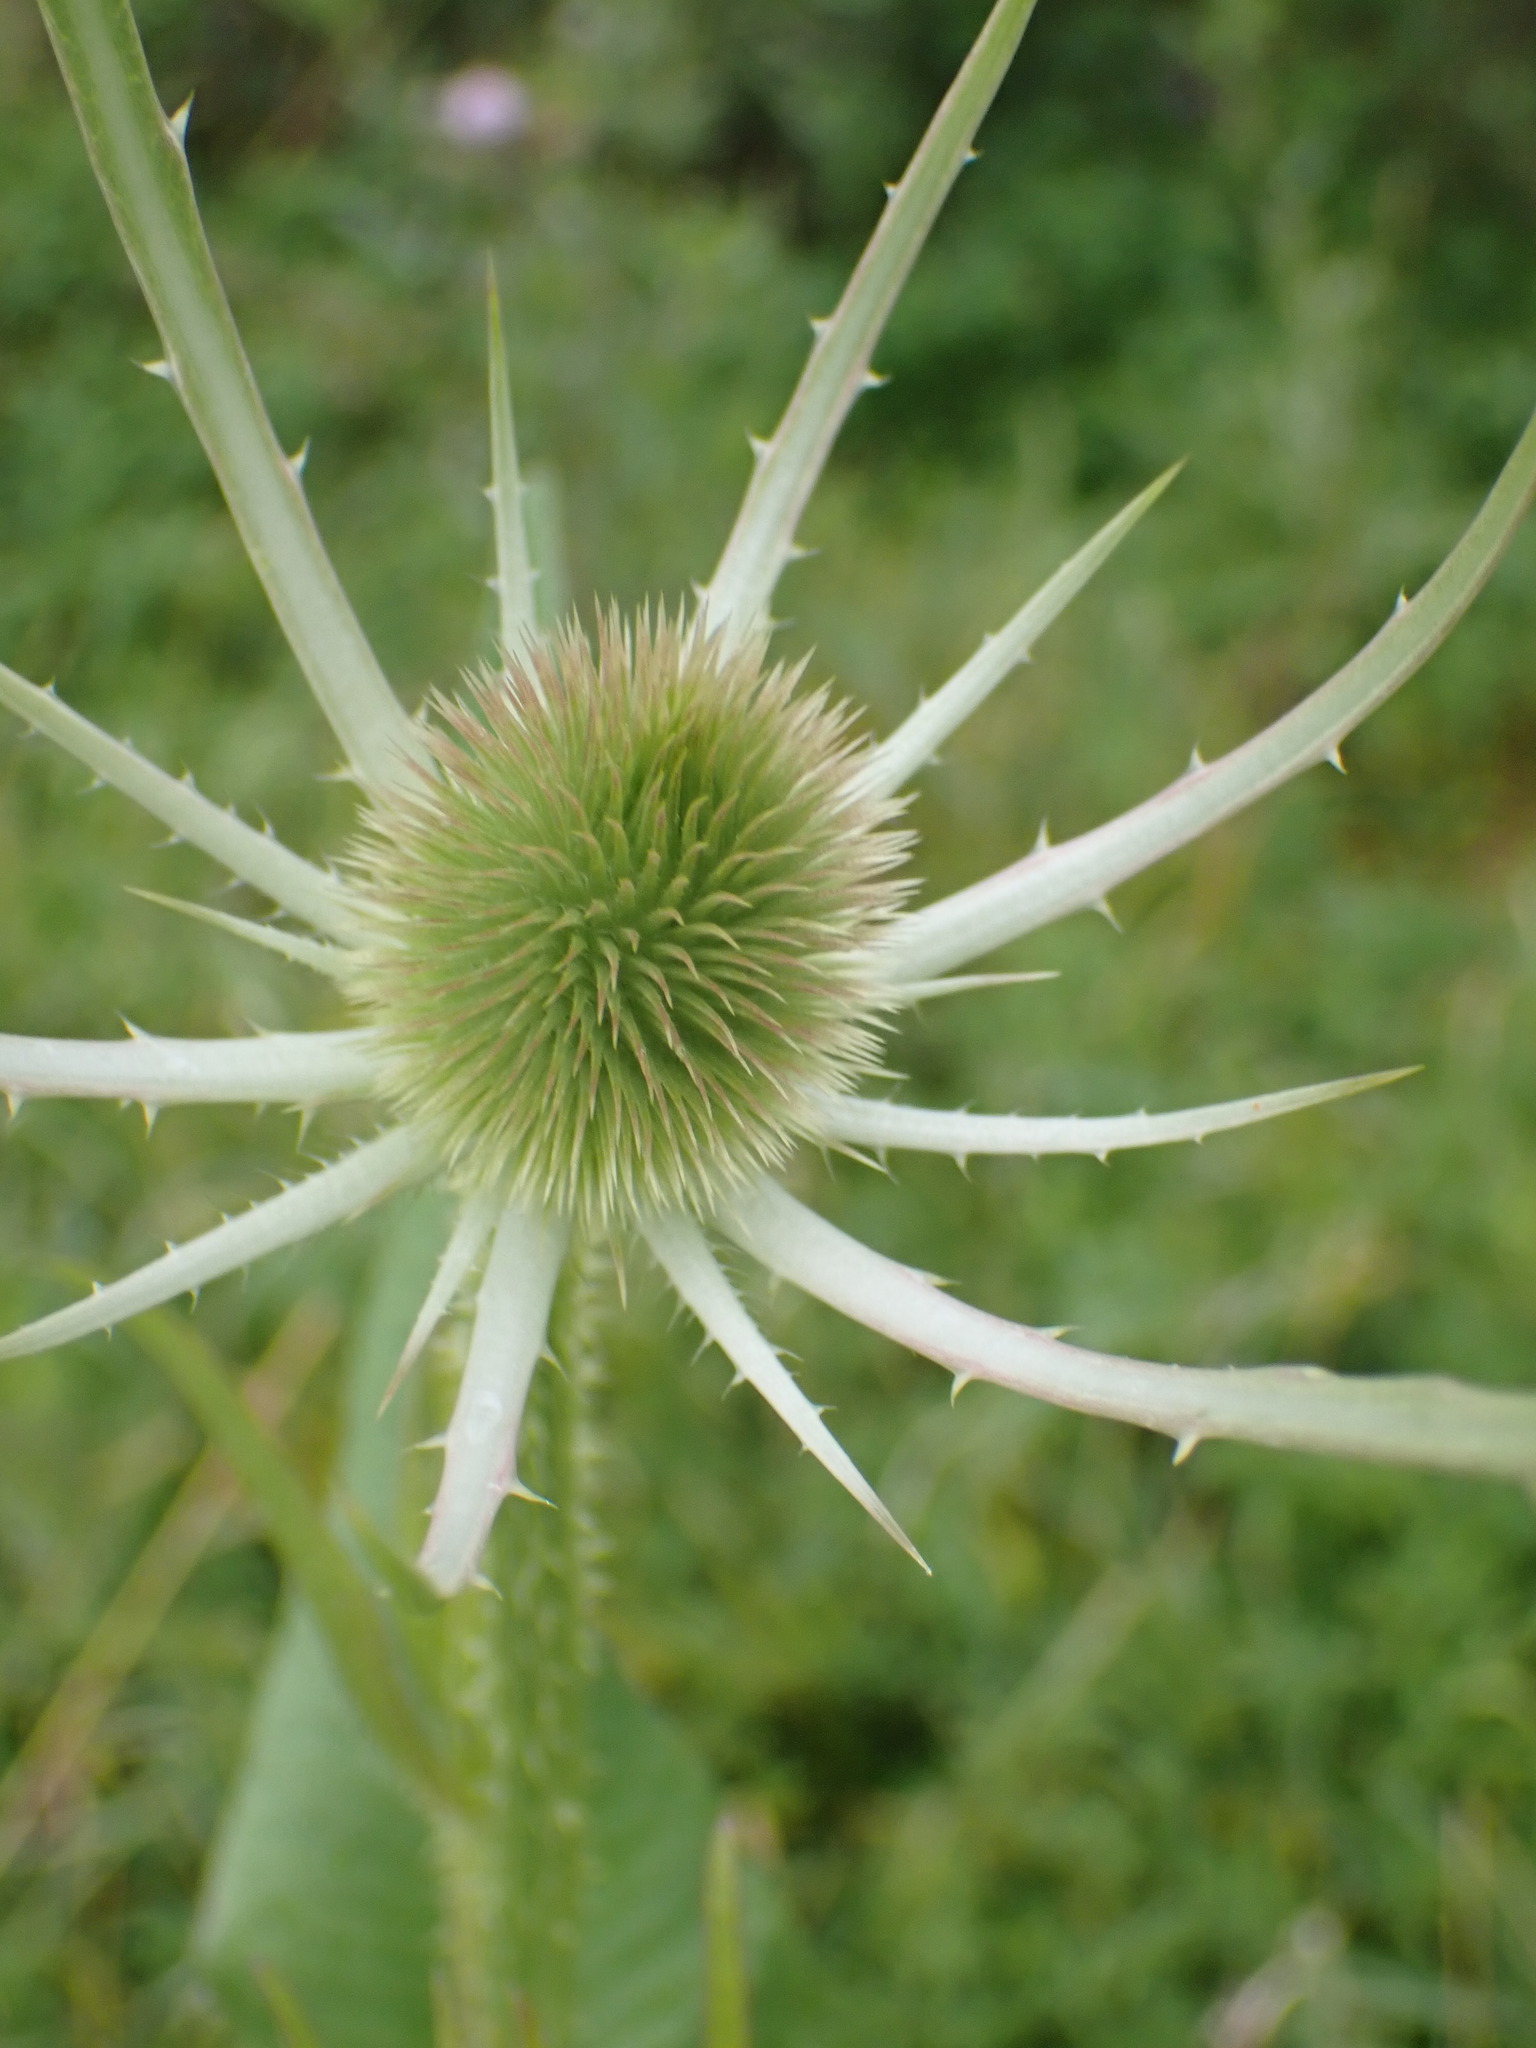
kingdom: Plantae
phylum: Tracheophyta
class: Magnoliopsida
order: Dipsacales
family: Caprifoliaceae
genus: Dipsacus
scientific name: Dipsacus fullonum
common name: Teasel
